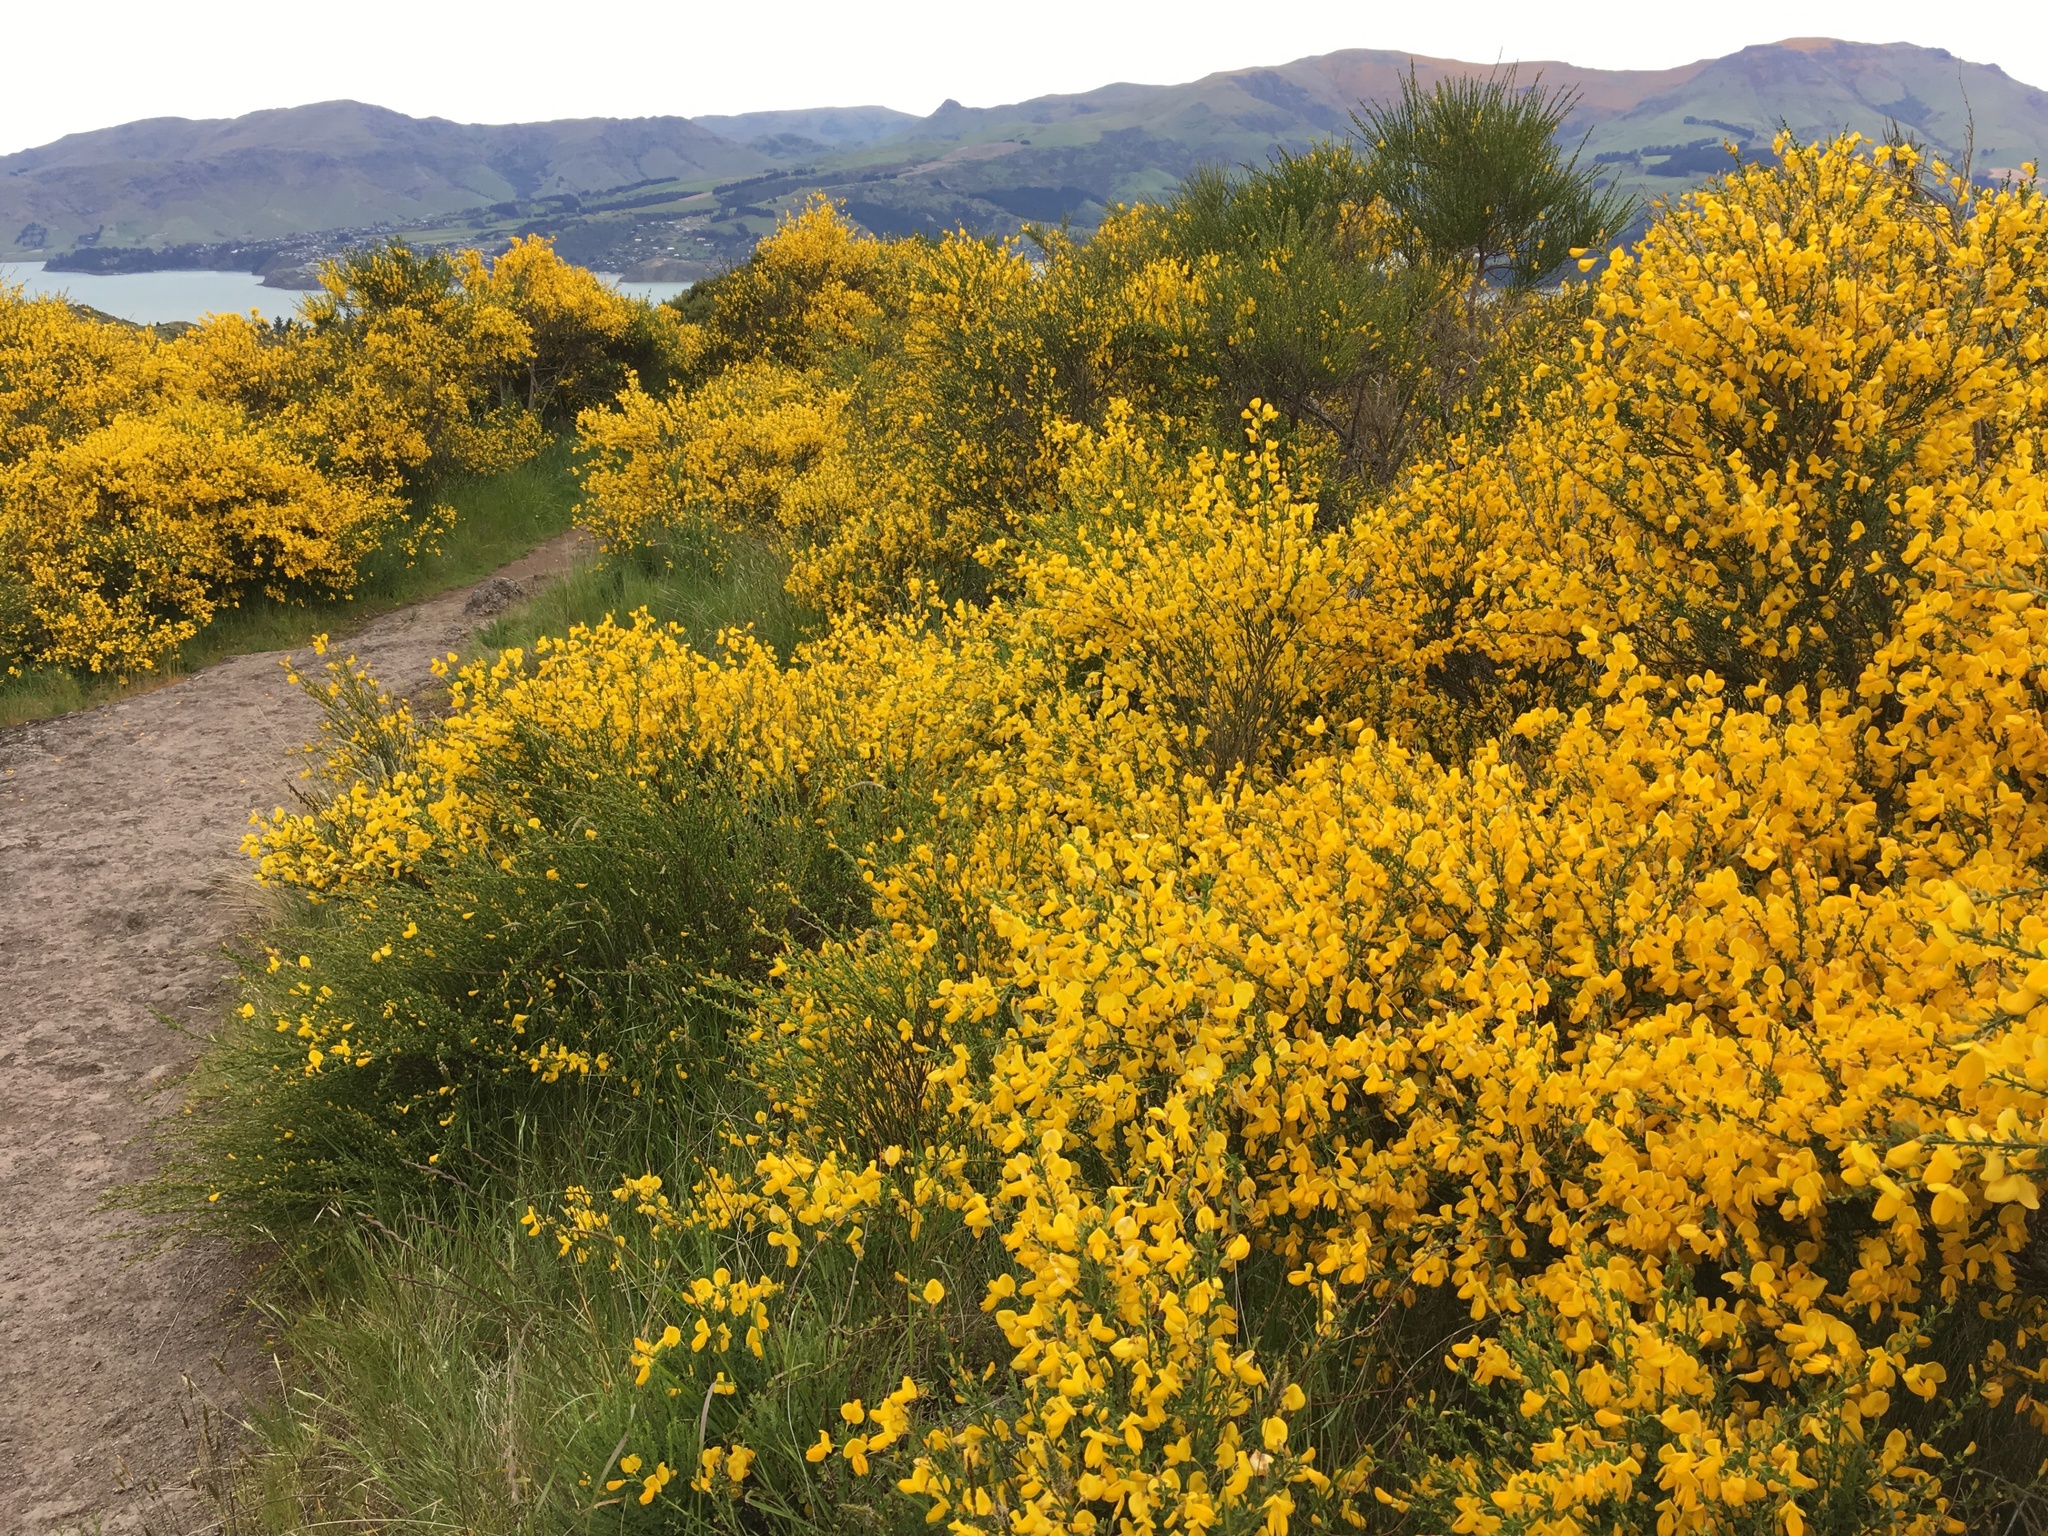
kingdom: Plantae
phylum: Tracheophyta
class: Magnoliopsida
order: Fabales
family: Fabaceae
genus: Cytisus
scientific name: Cytisus scoparius
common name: Scotch broom
